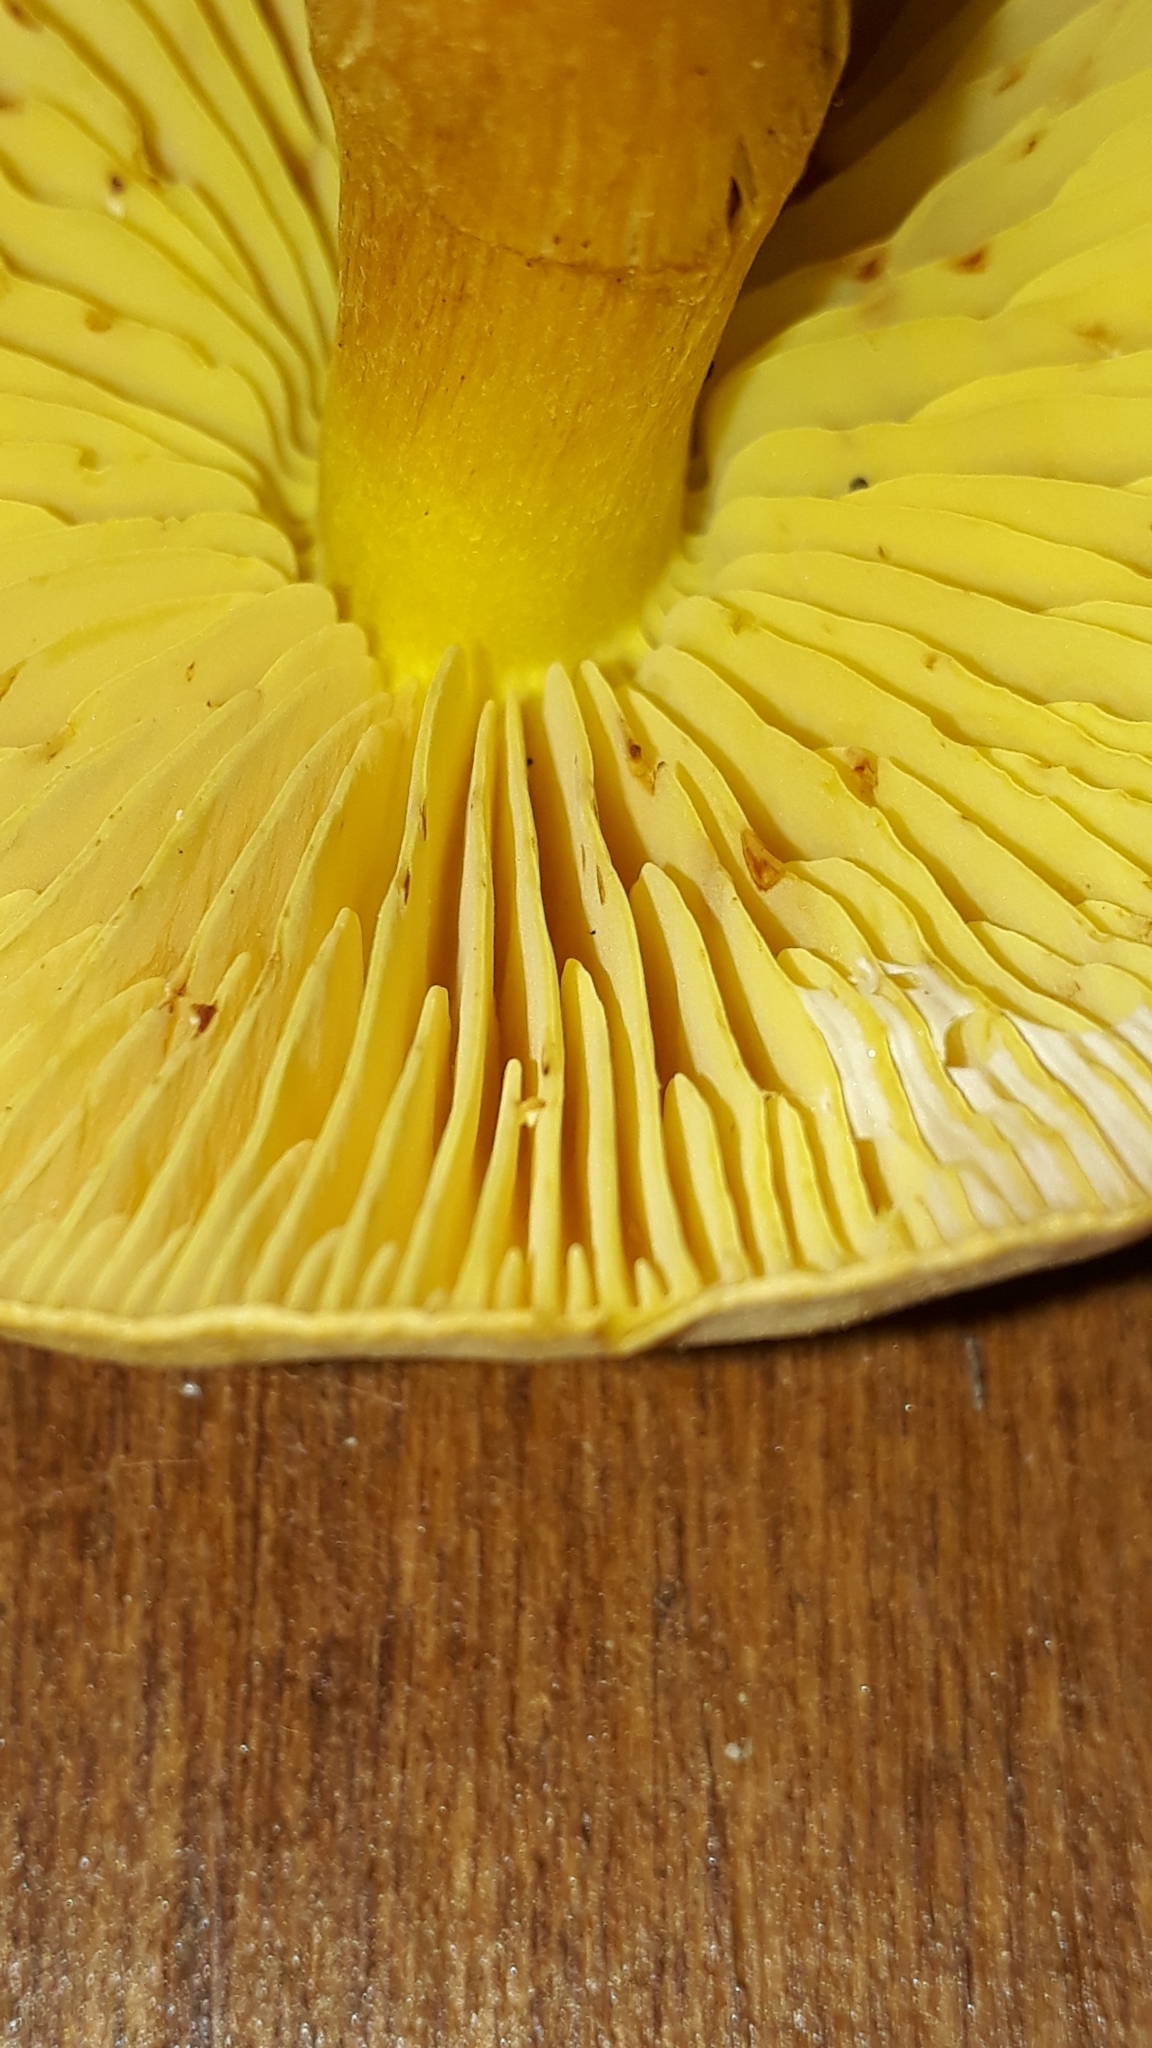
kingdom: Fungi
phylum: Basidiomycota
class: Agaricomycetes
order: Agaricales
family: Tricholomataceae
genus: Tricholoma
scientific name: Tricholoma sulphureum
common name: Stinky knight
